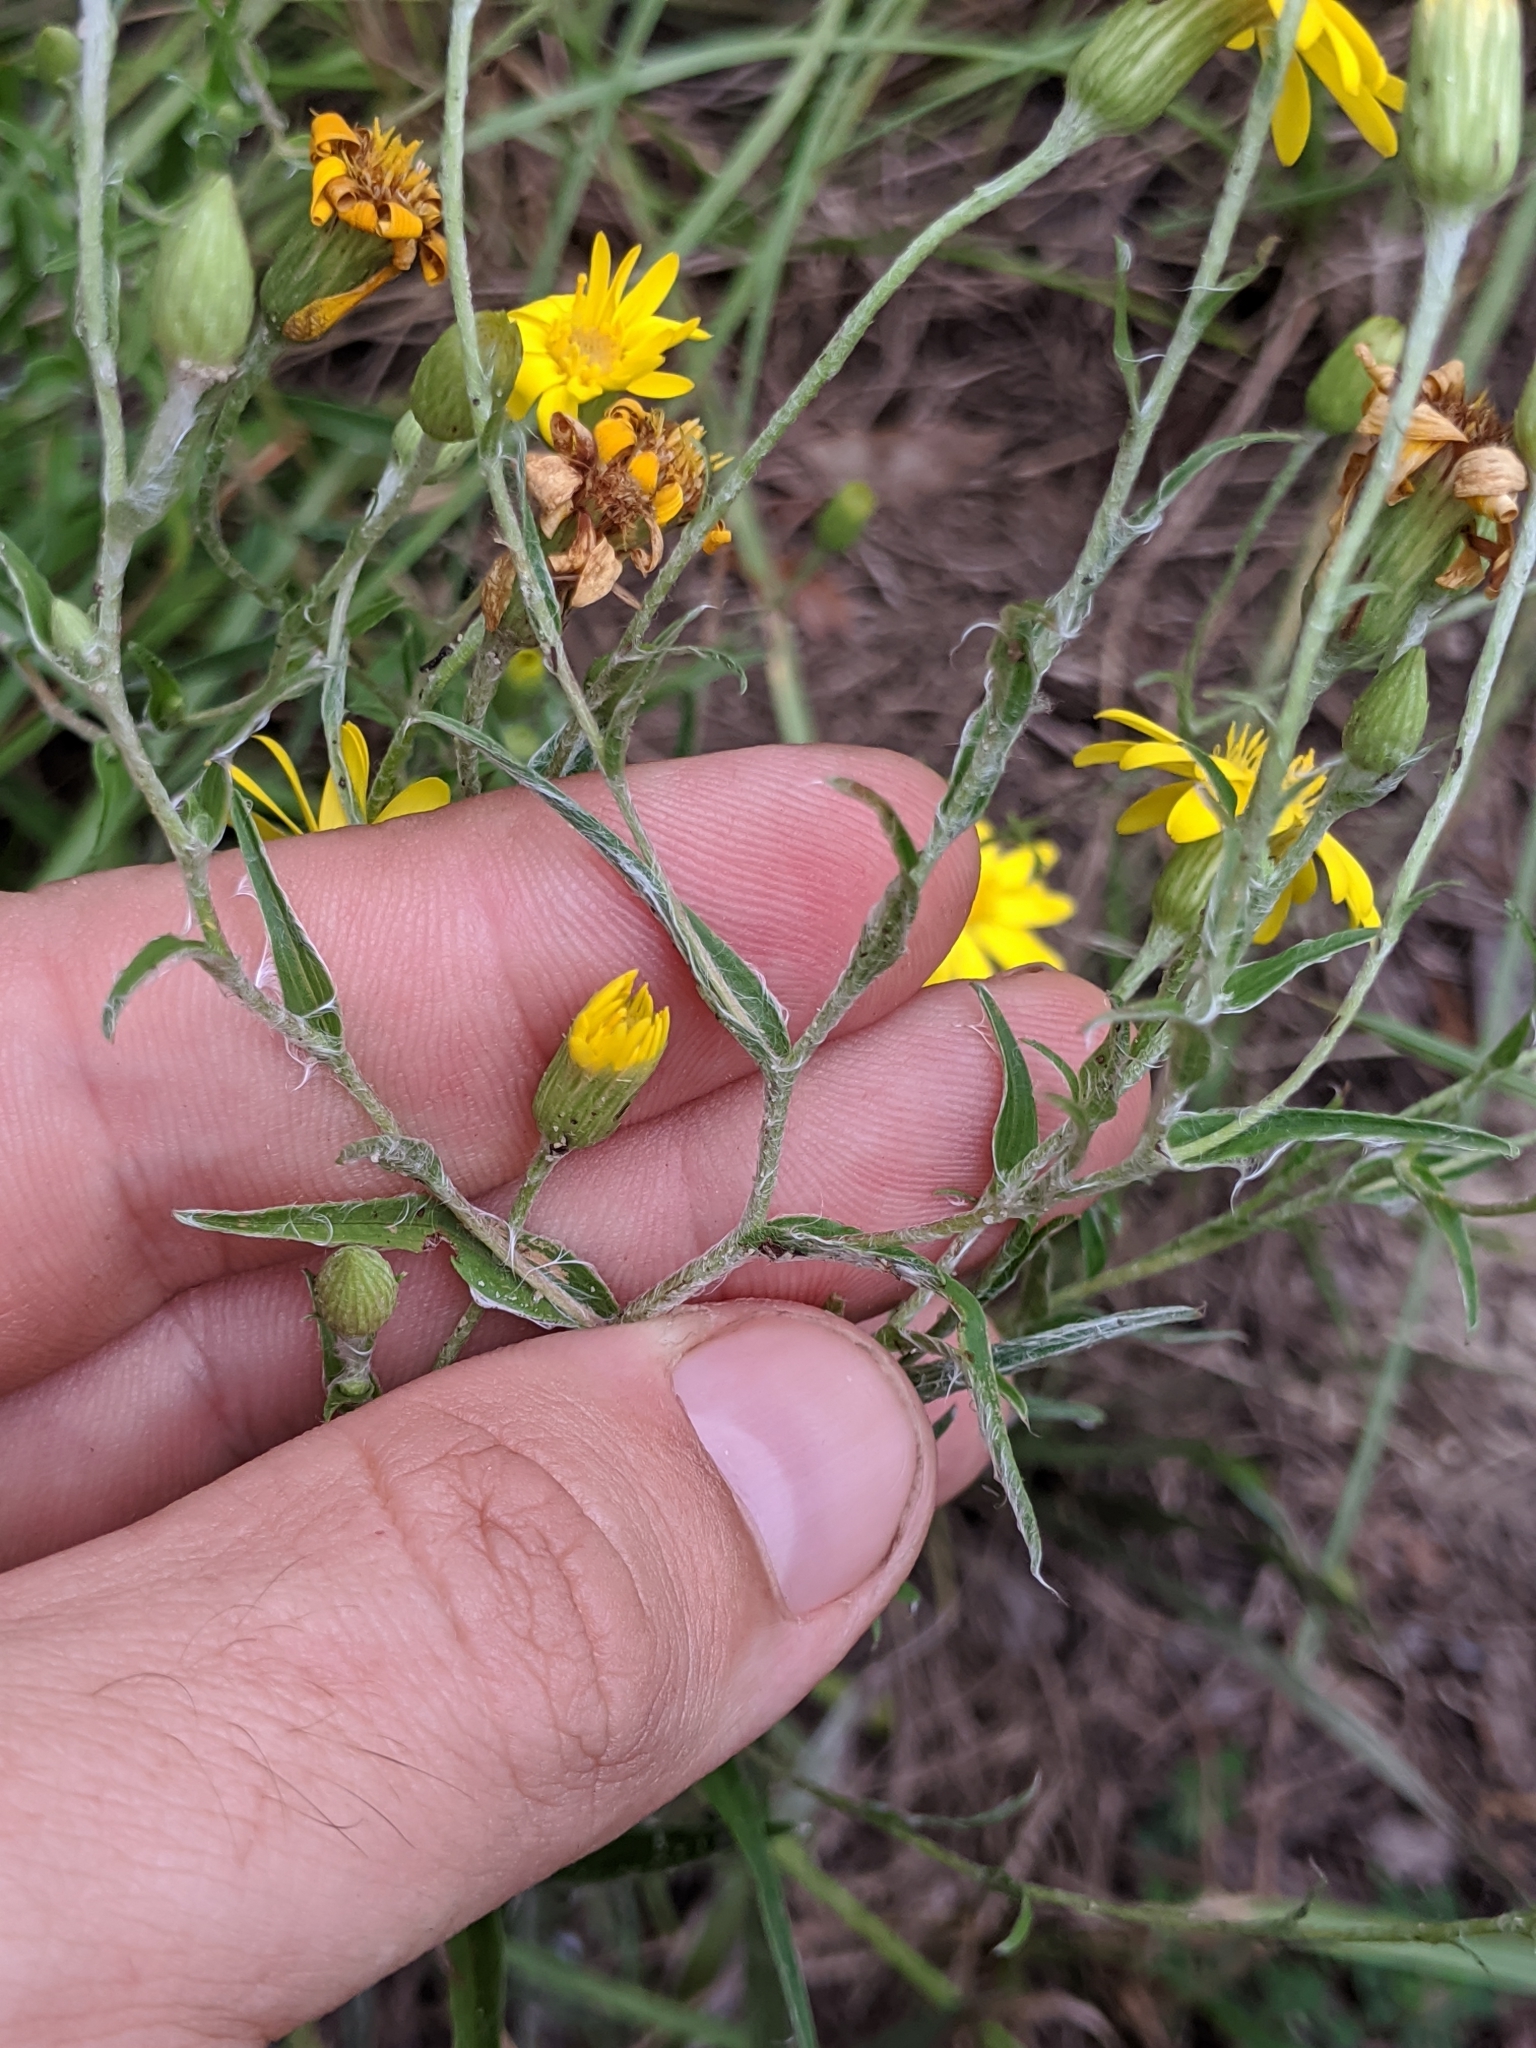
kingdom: Plantae
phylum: Tracheophyta
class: Magnoliopsida
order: Asterales
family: Asteraceae
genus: Pityopsis
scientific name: Pityopsis flexuosa
